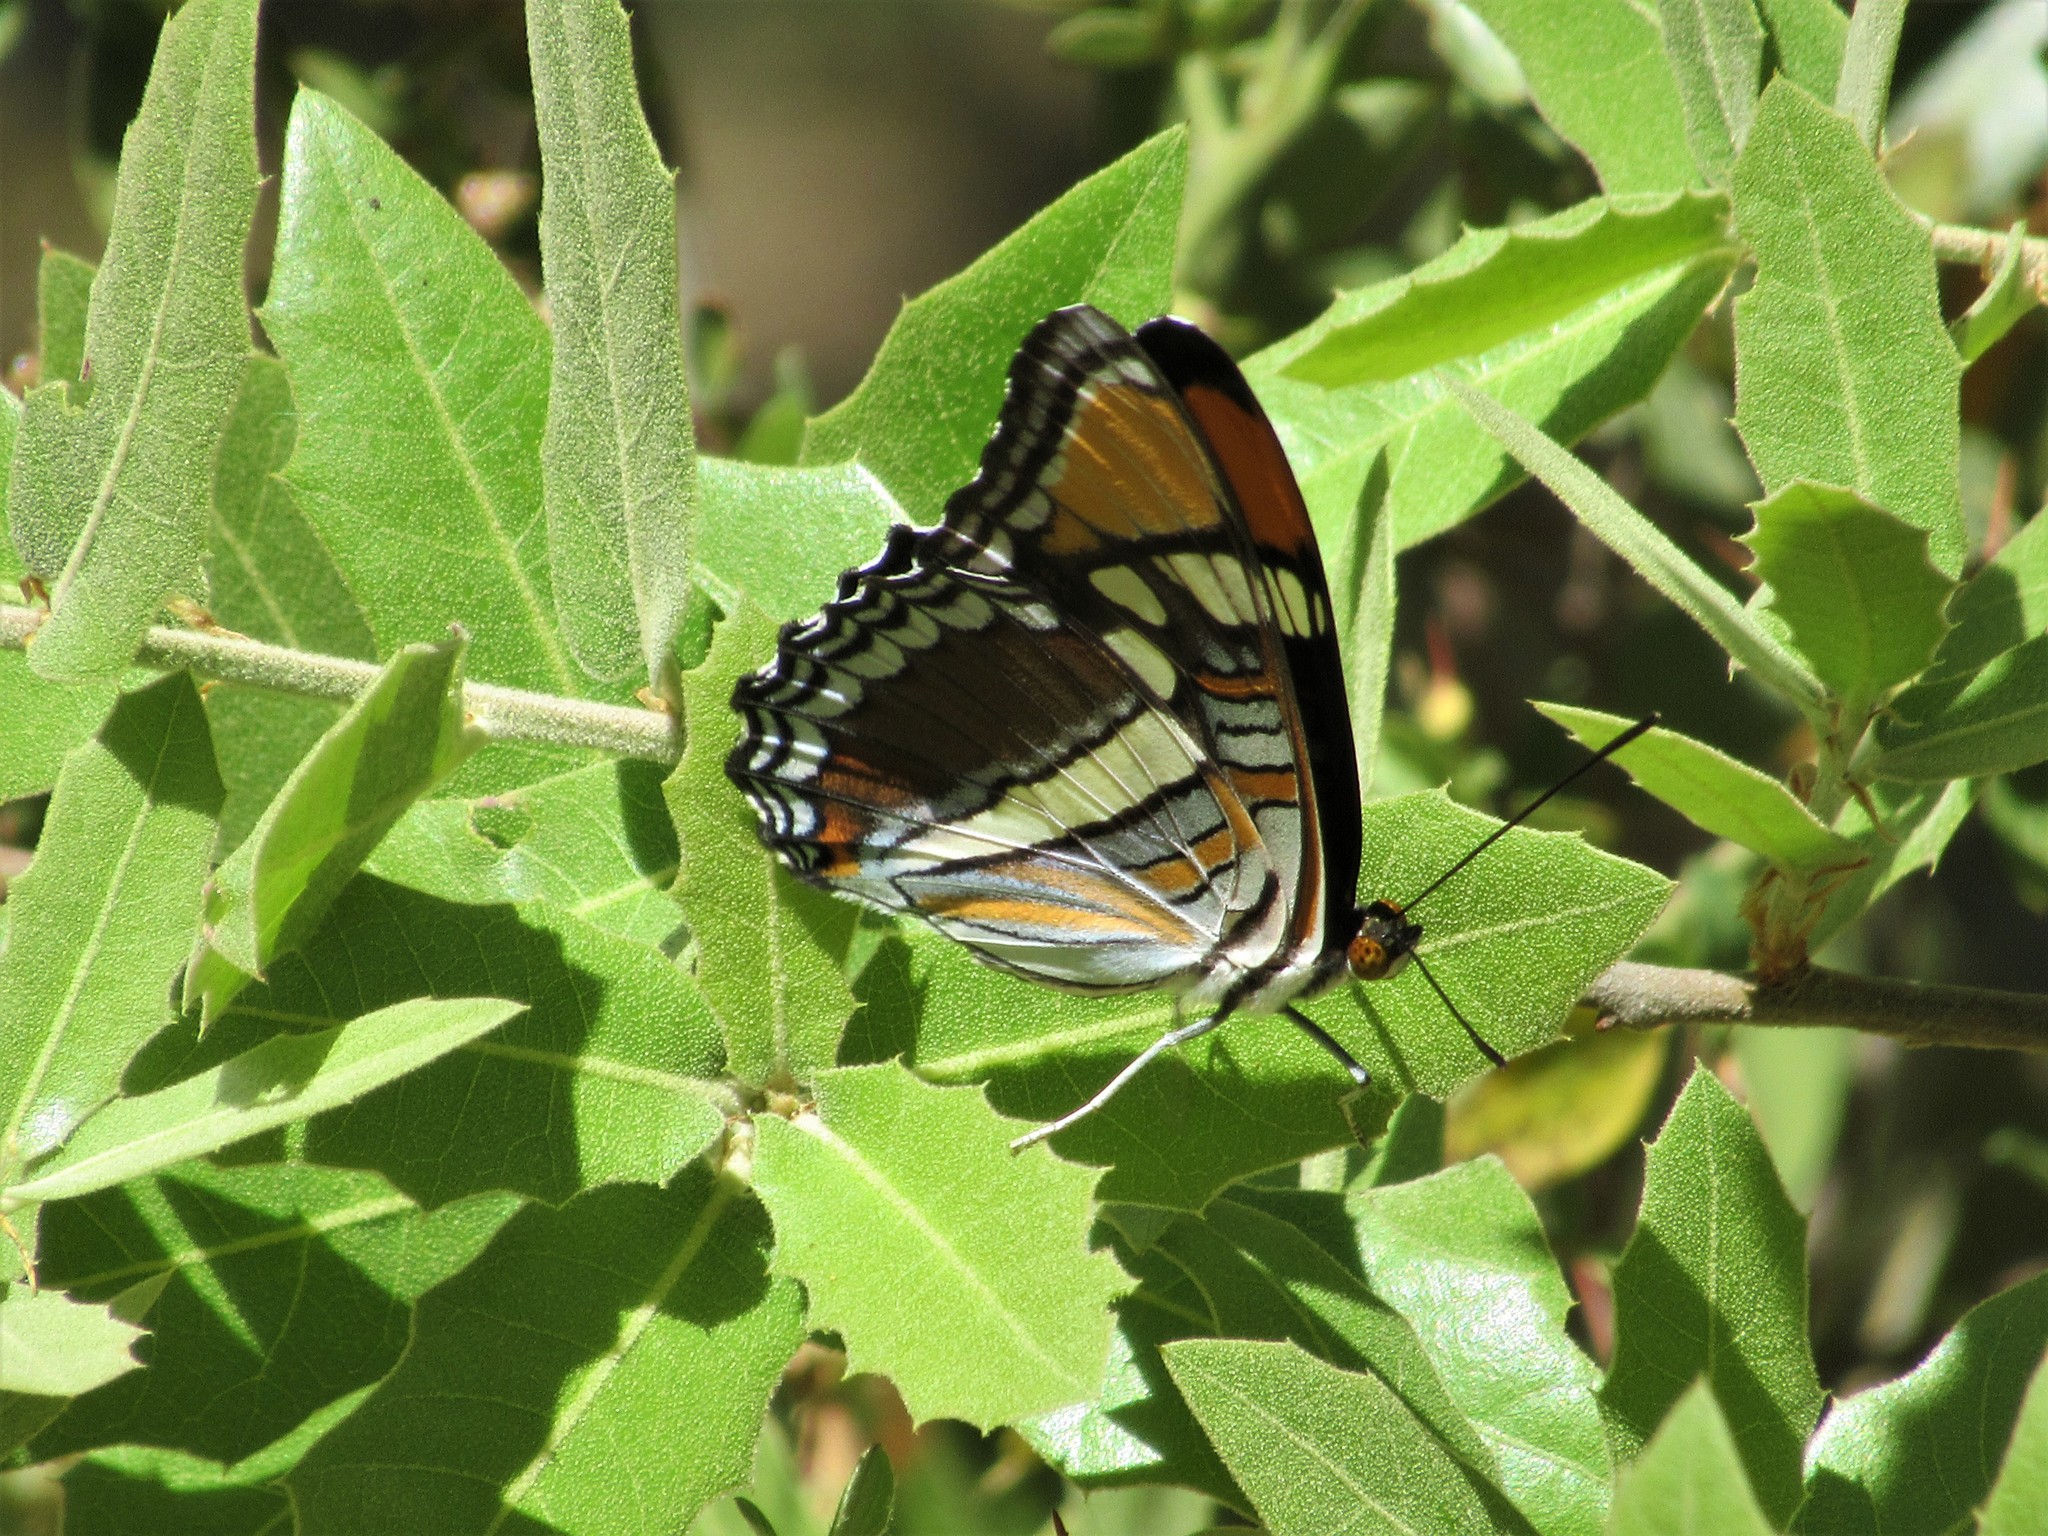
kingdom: Animalia
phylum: Arthropoda
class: Insecta
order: Lepidoptera
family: Nymphalidae
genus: Limenitis
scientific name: Limenitis bredowii
